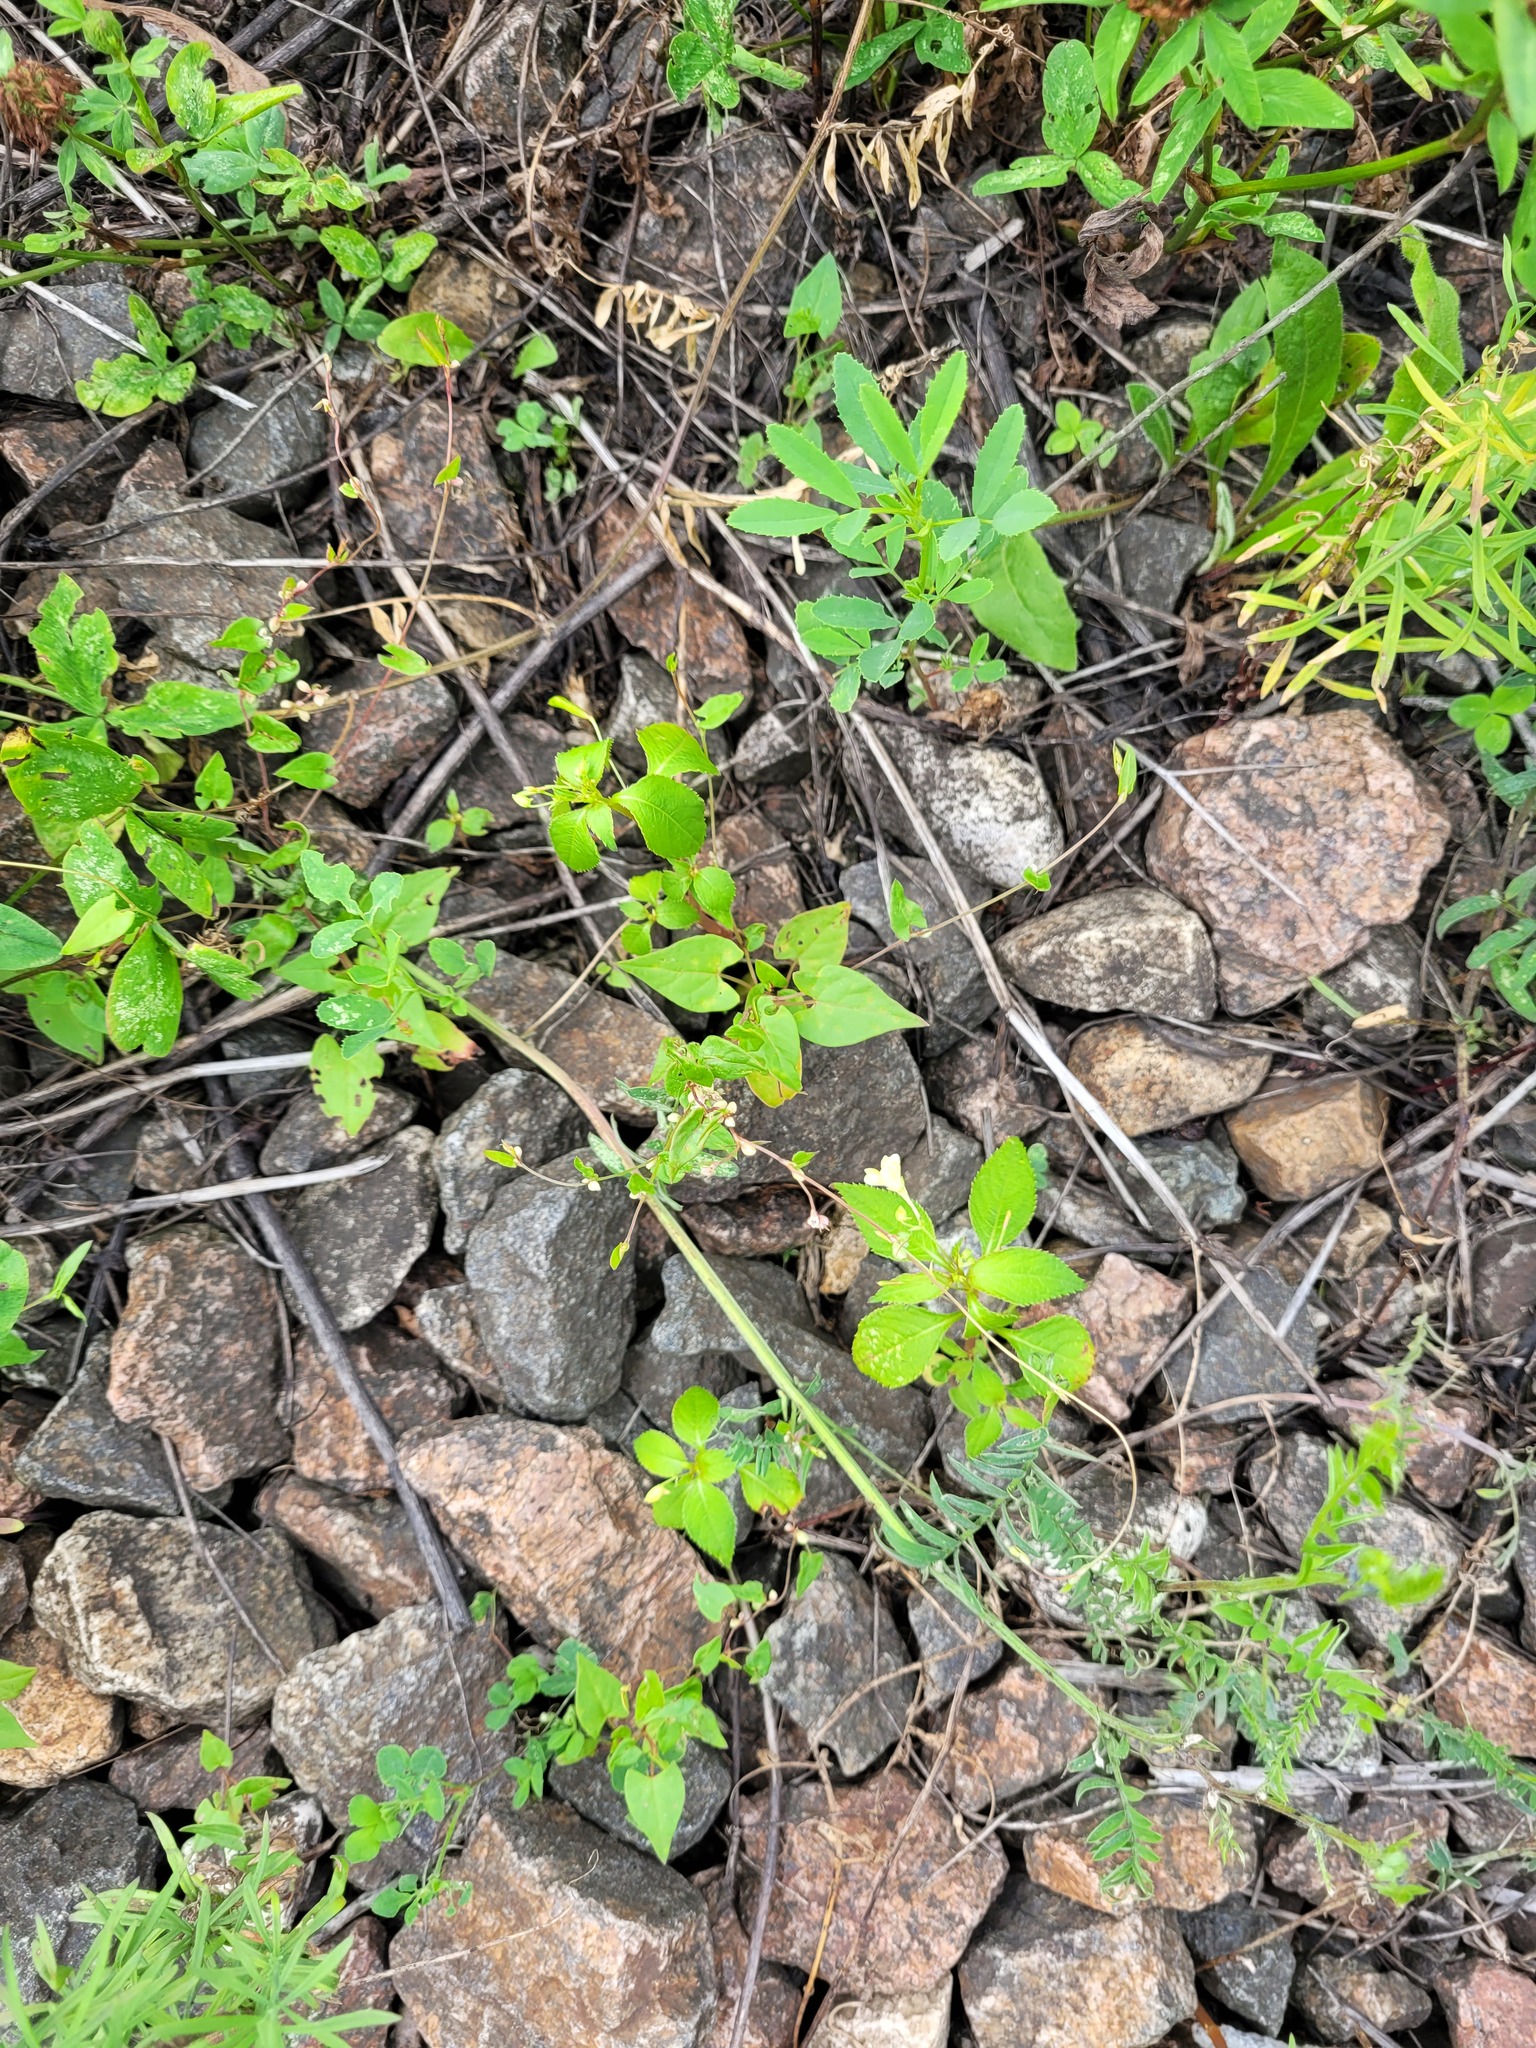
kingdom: Plantae
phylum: Tracheophyta
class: Magnoliopsida
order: Caryophyllales
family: Polygonaceae
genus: Fallopia
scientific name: Fallopia convolvulus
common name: Black bindweed
